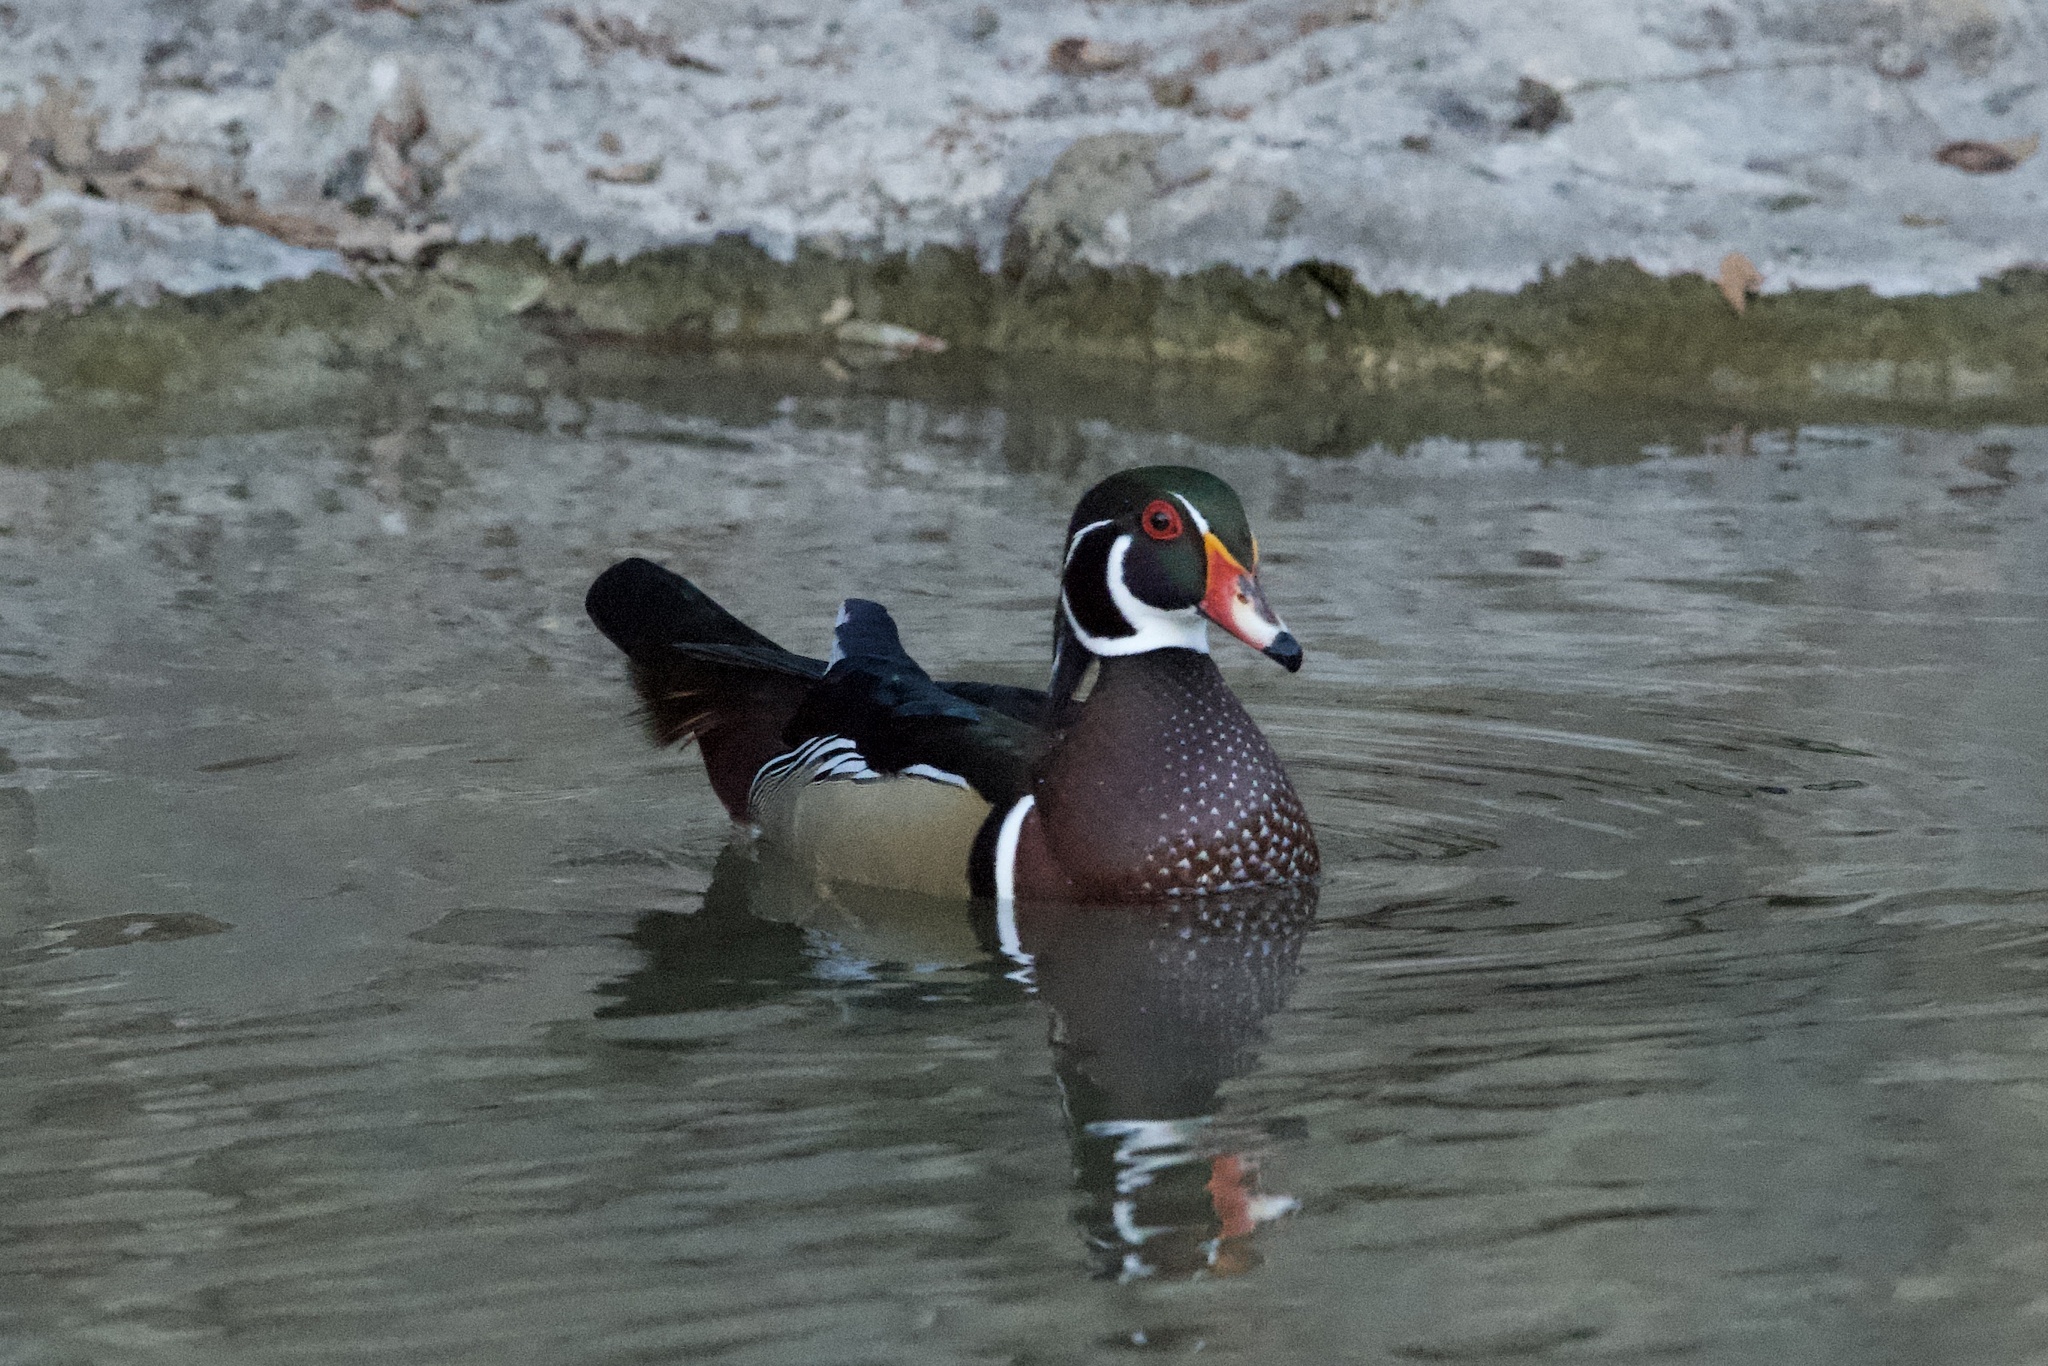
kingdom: Animalia
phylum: Chordata
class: Aves
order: Anseriformes
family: Anatidae
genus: Aix
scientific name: Aix sponsa
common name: Wood duck
